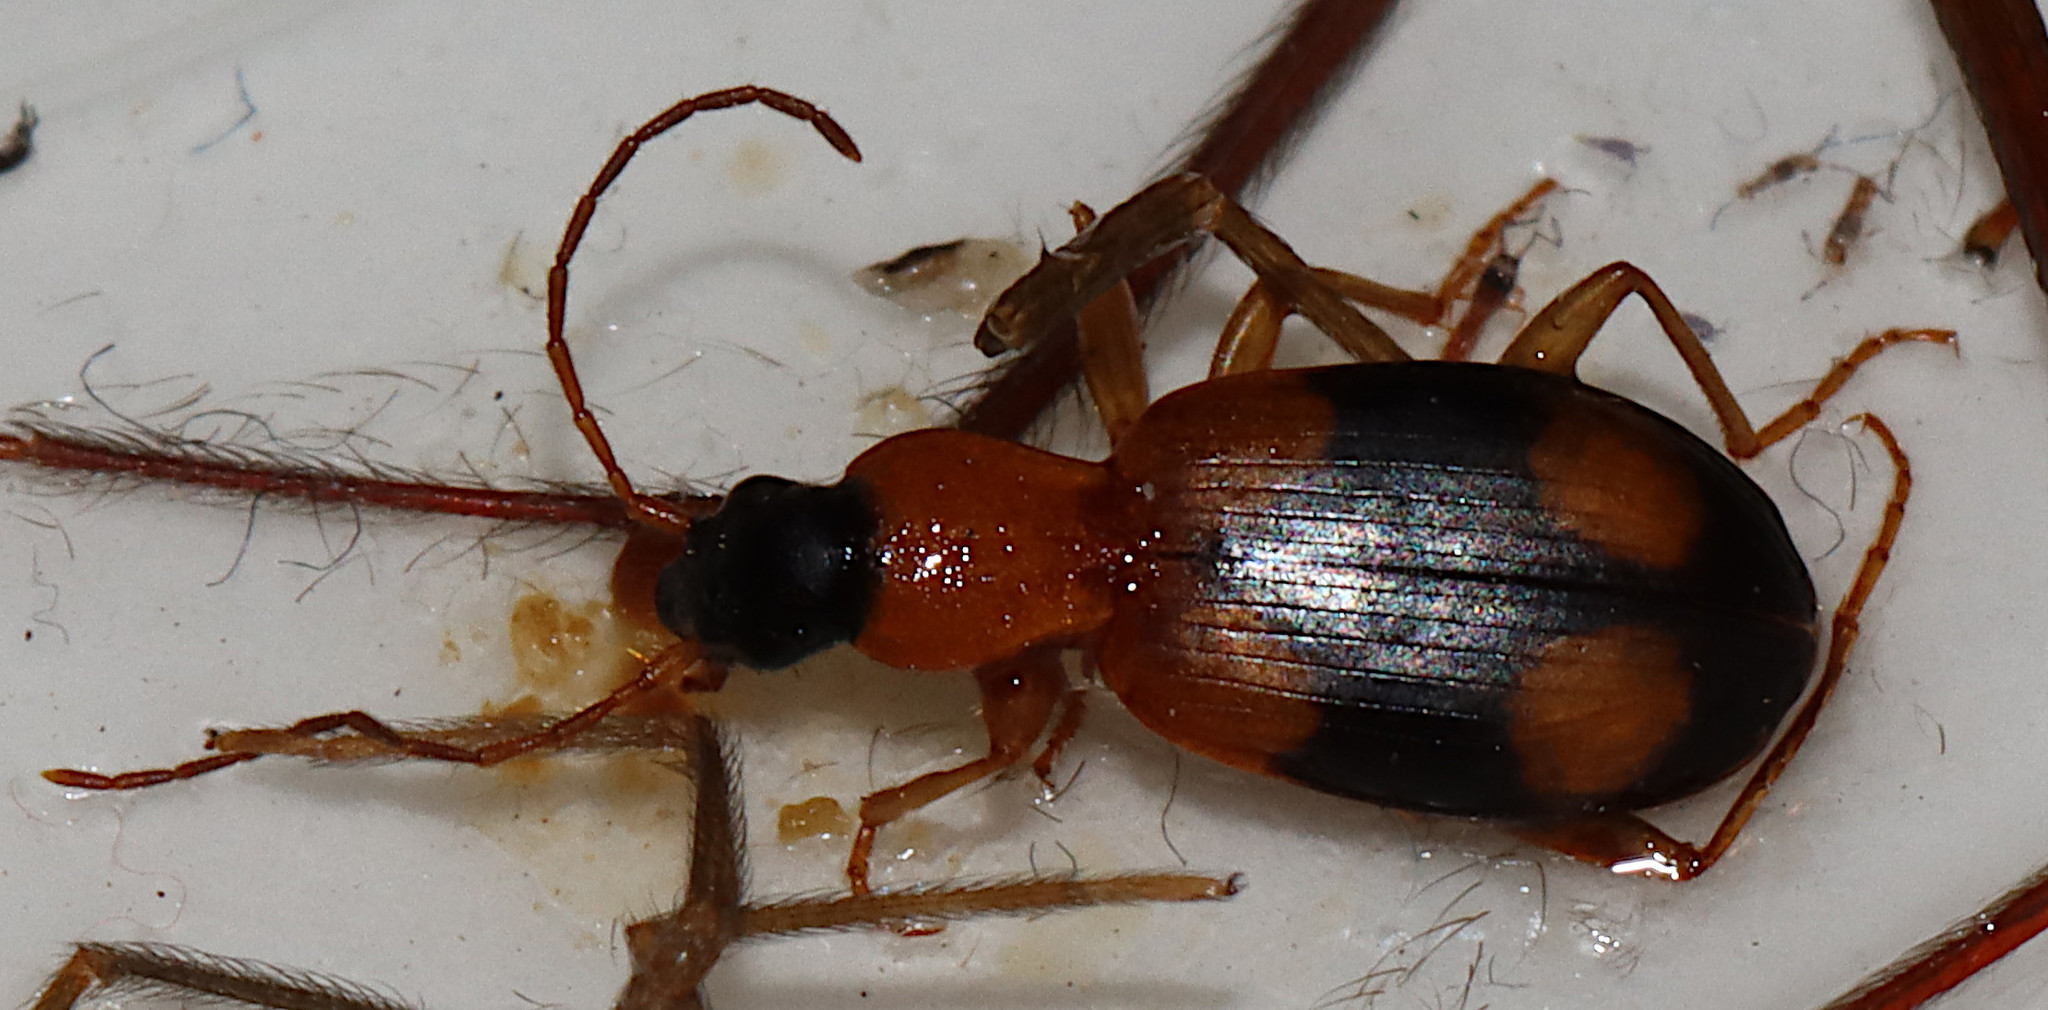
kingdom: Animalia
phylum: Arthropoda
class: Insecta
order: Coleoptera
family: Carabidae
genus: Agonum
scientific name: Agonum quadrimaculatum
